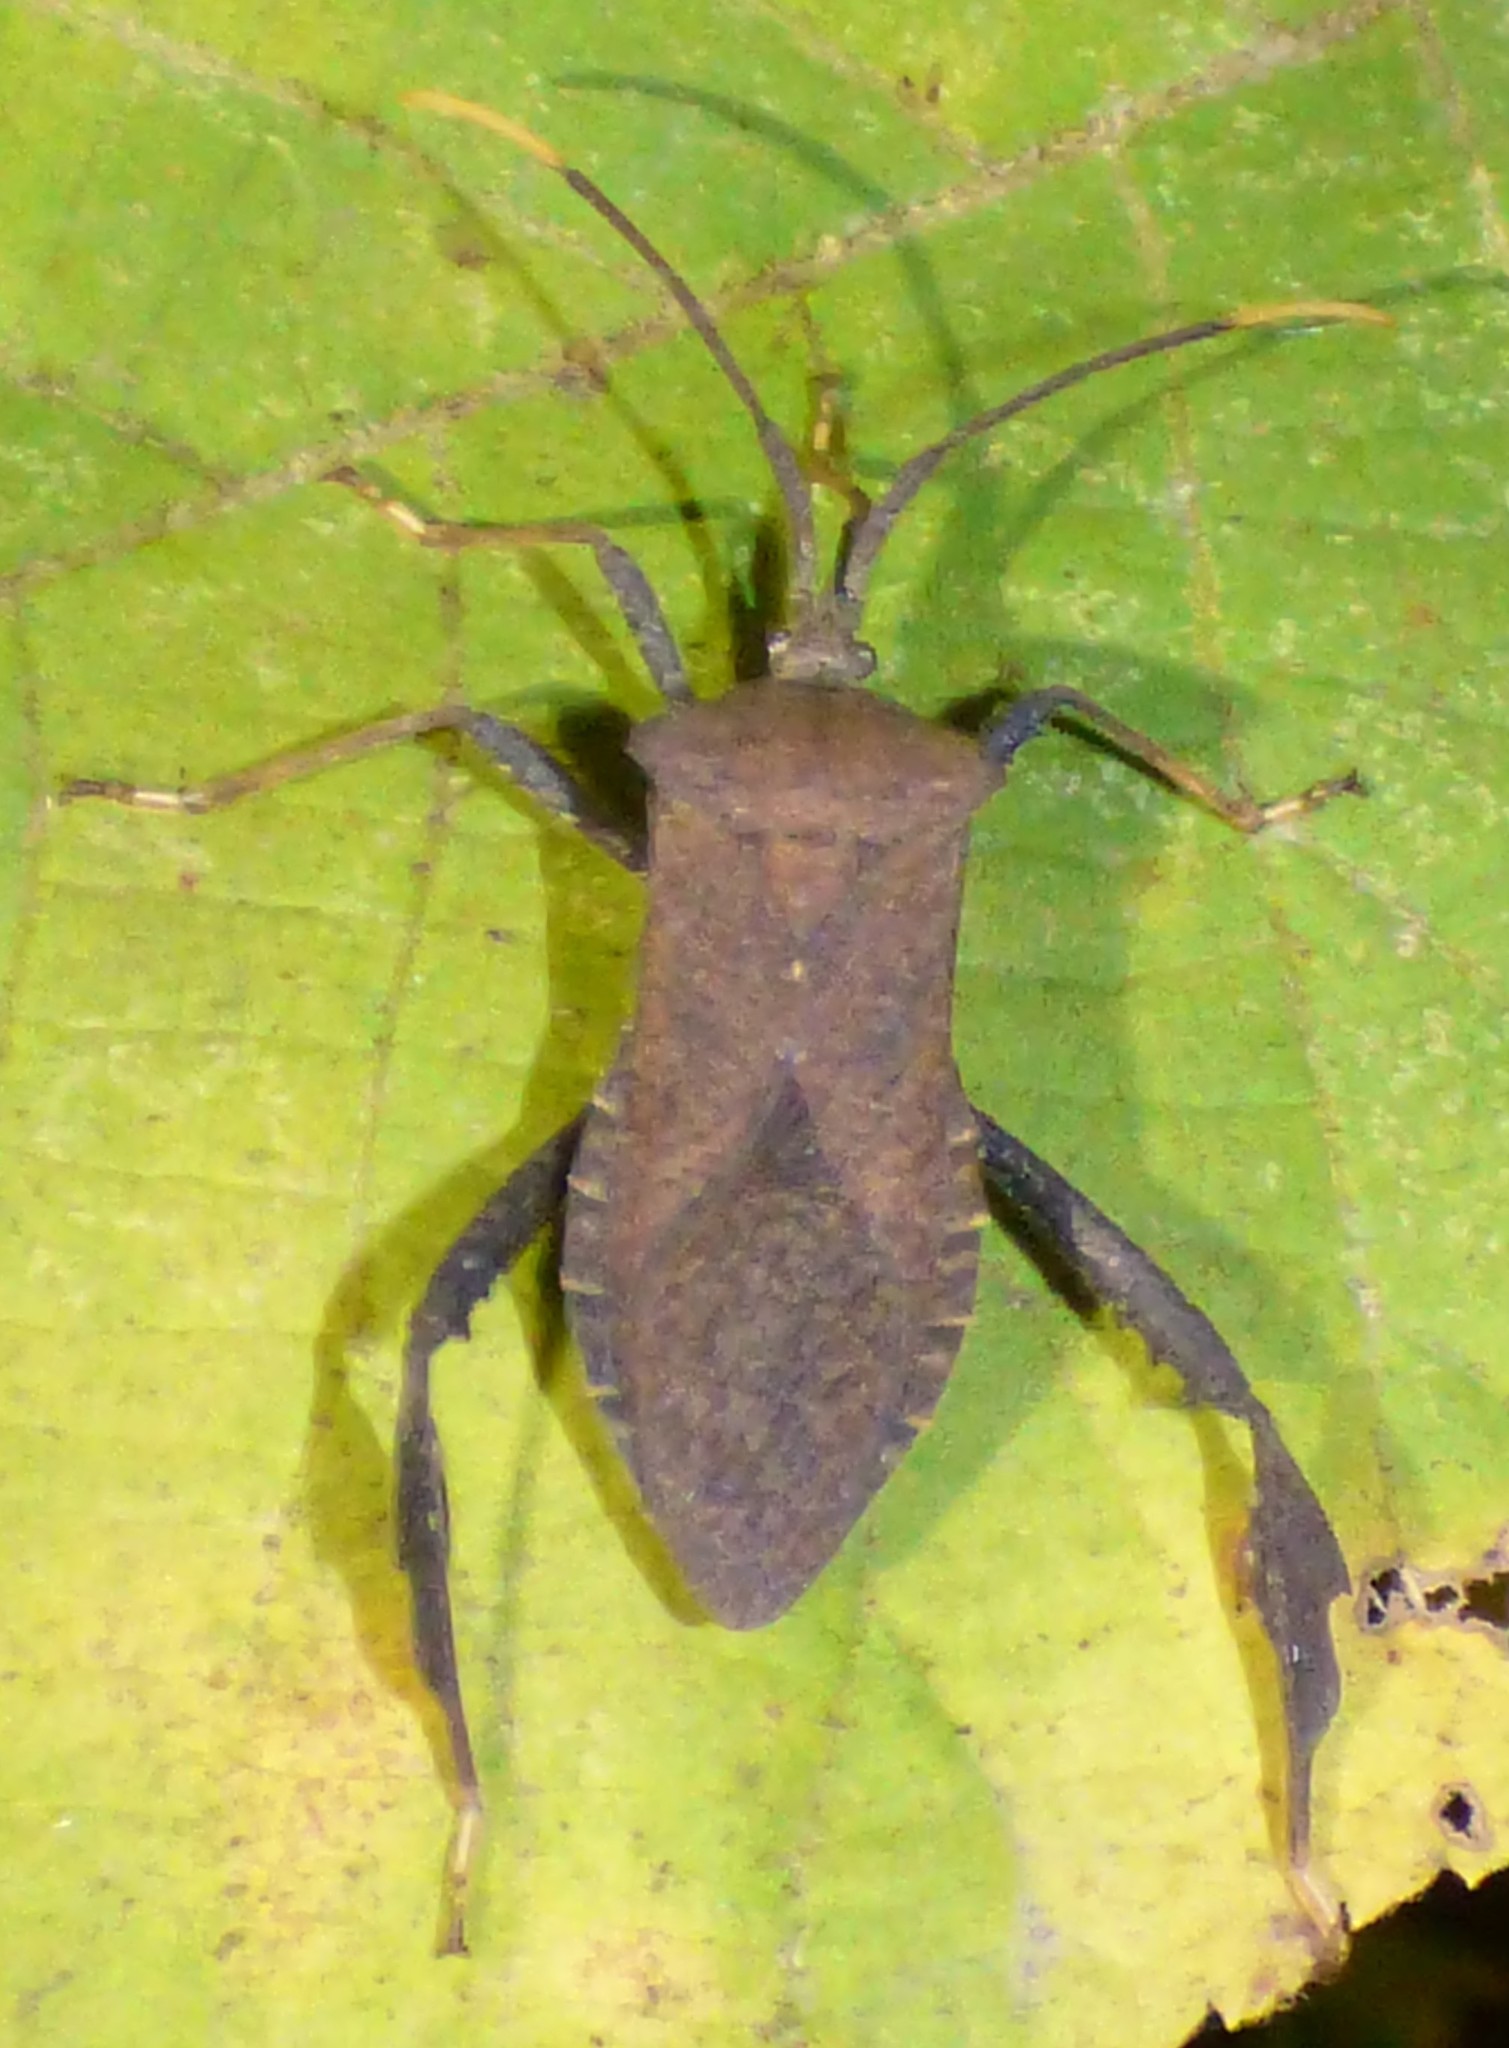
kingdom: Animalia
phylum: Arthropoda
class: Insecta
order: Hemiptera
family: Coreidae
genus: Acanthocephala
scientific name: Acanthocephala terminalis
